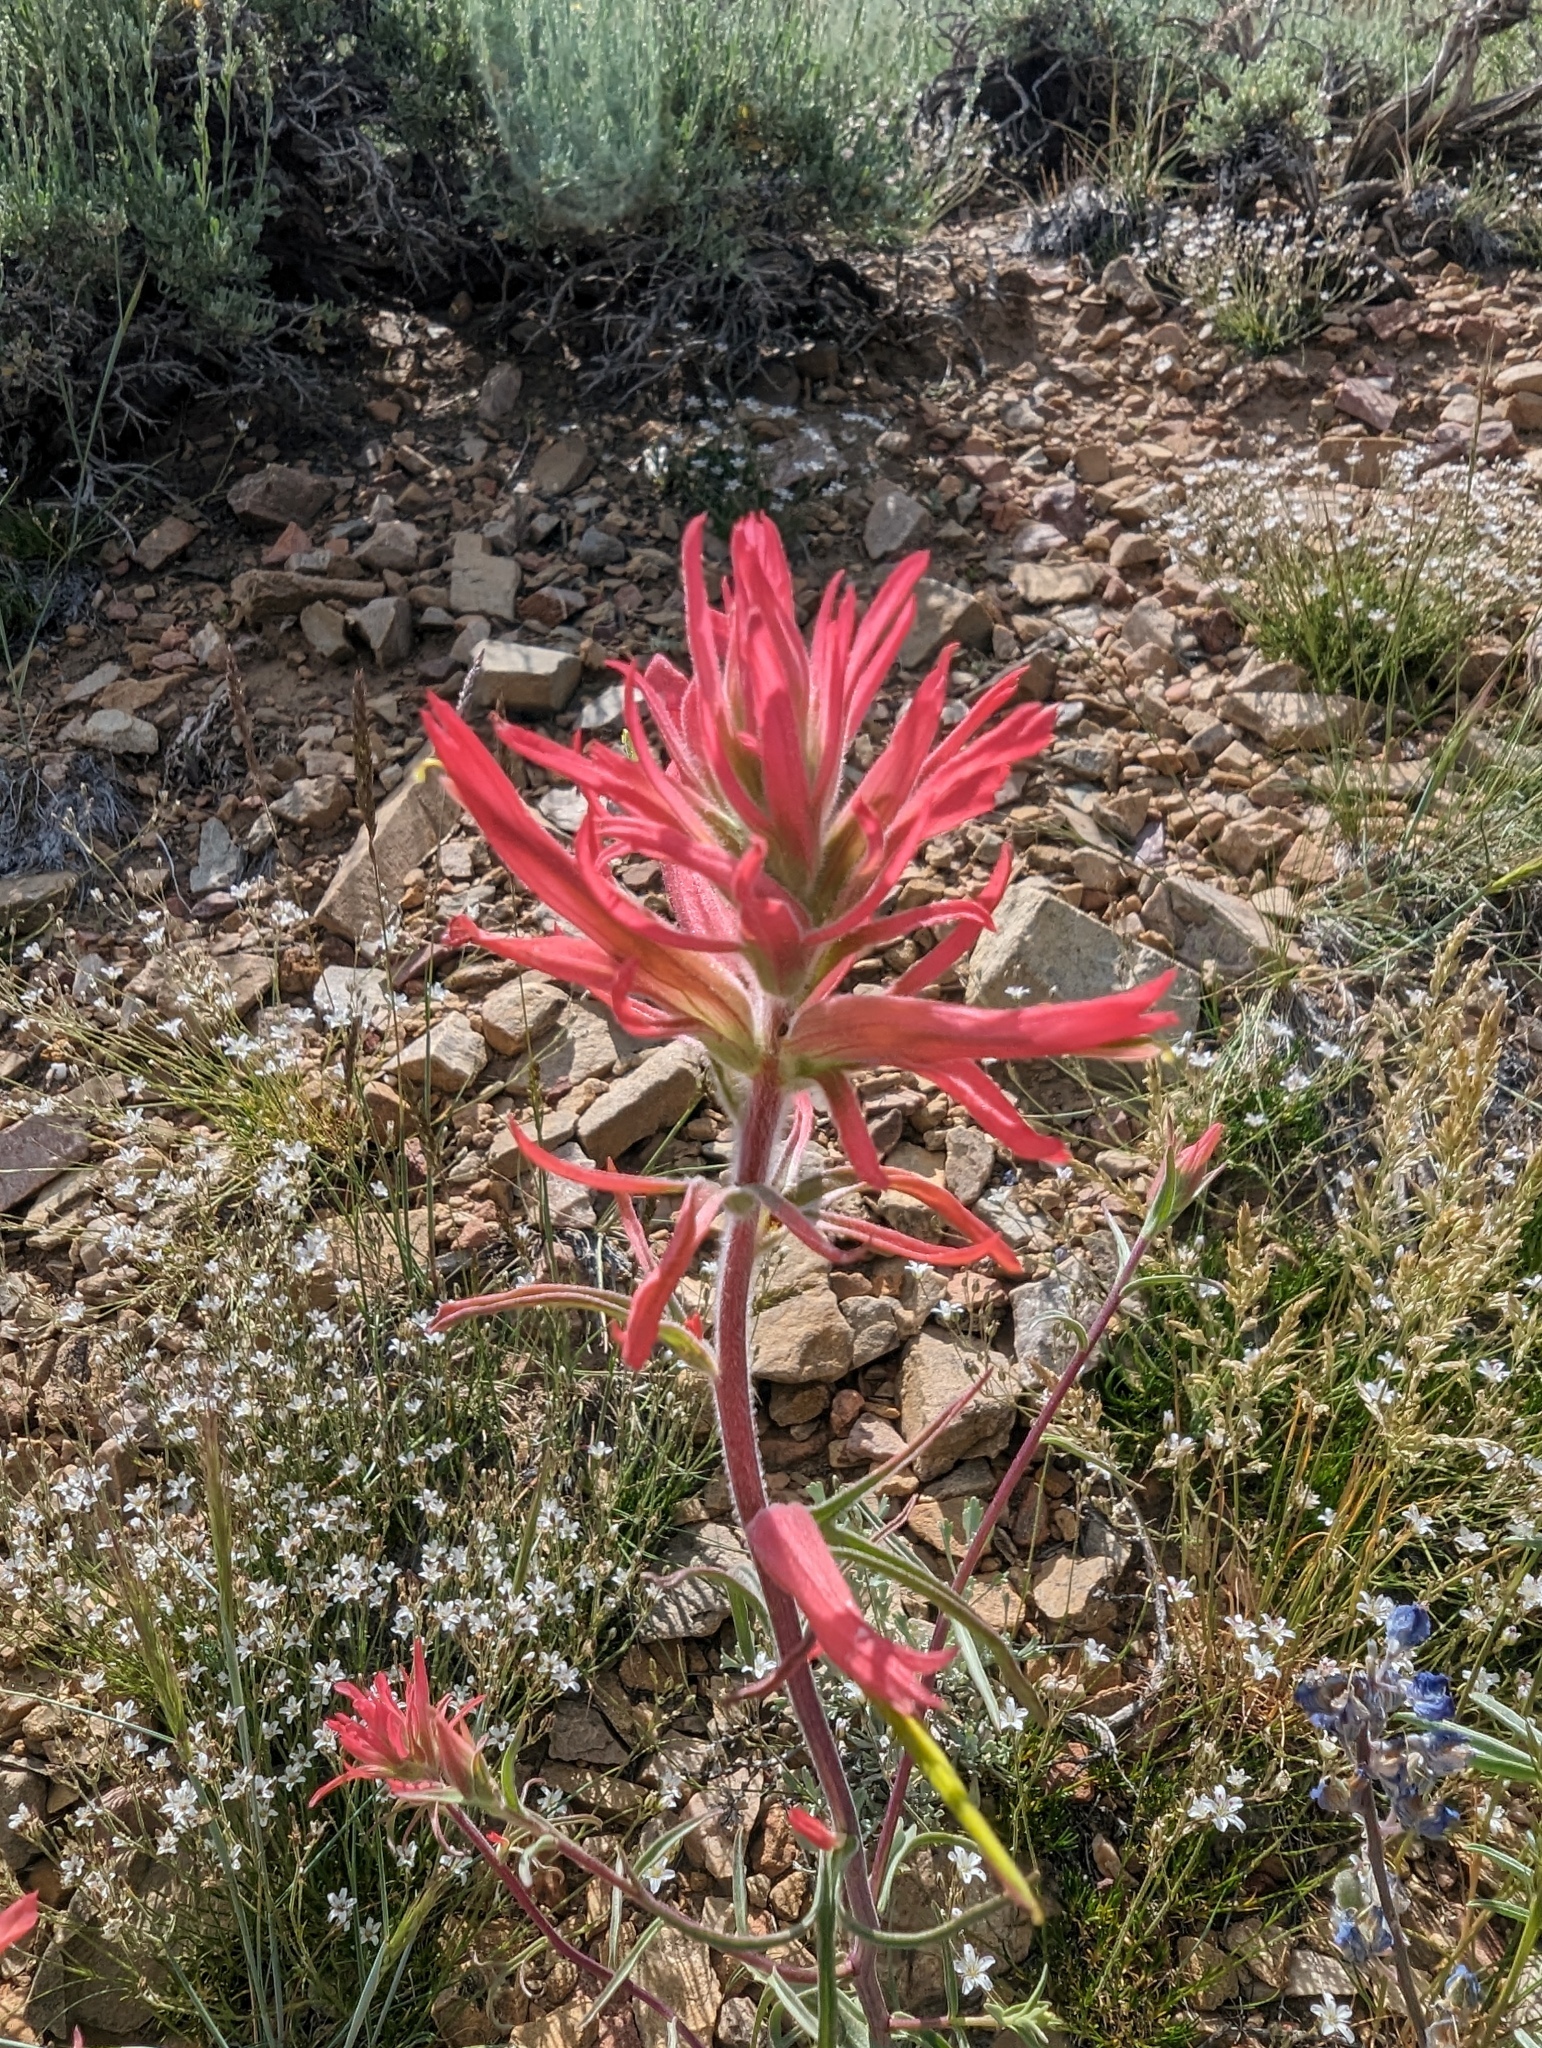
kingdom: Plantae
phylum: Tracheophyta
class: Magnoliopsida
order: Lamiales
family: Orobanchaceae
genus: Castilleja
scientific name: Castilleja linariifolia
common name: Wyoming paintbrush
